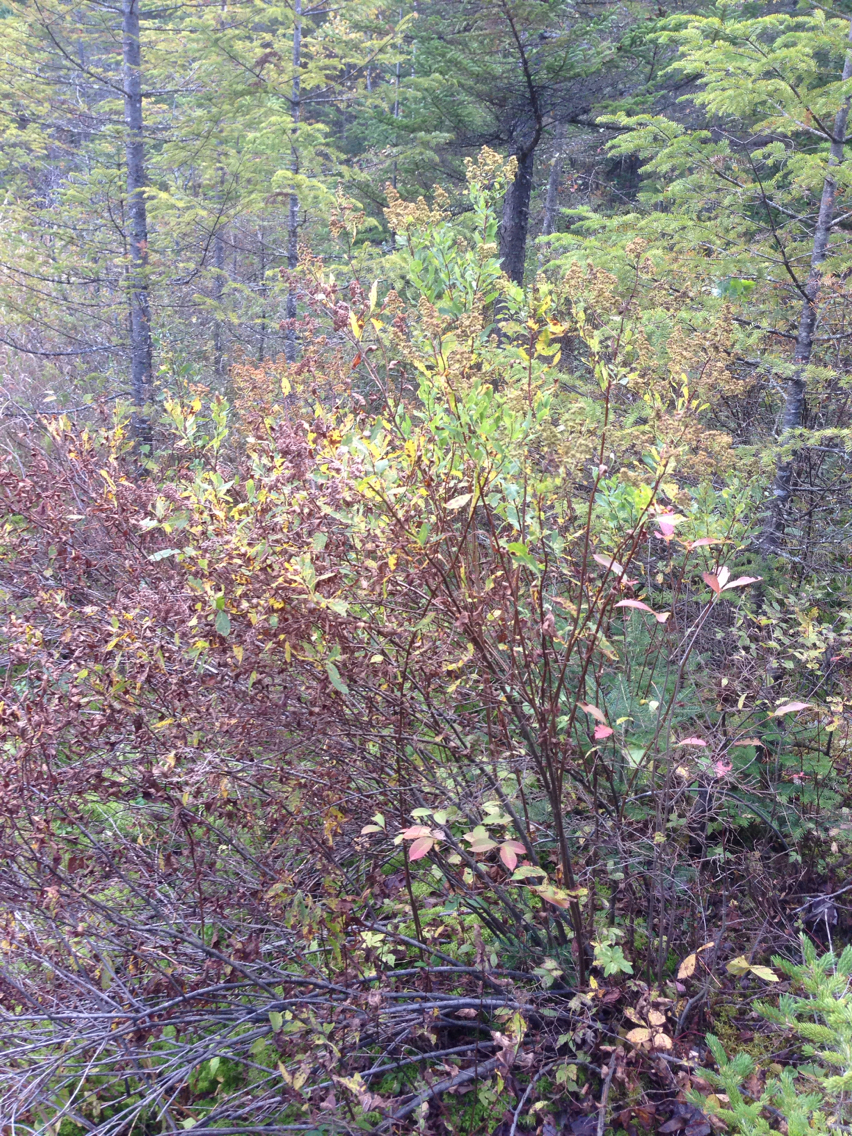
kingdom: Plantae
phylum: Tracheophyta
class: Magnoliopsida
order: Rosales
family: Rosaceae
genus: Spiraea
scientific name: Spiraea alba
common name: Pale bridewort
